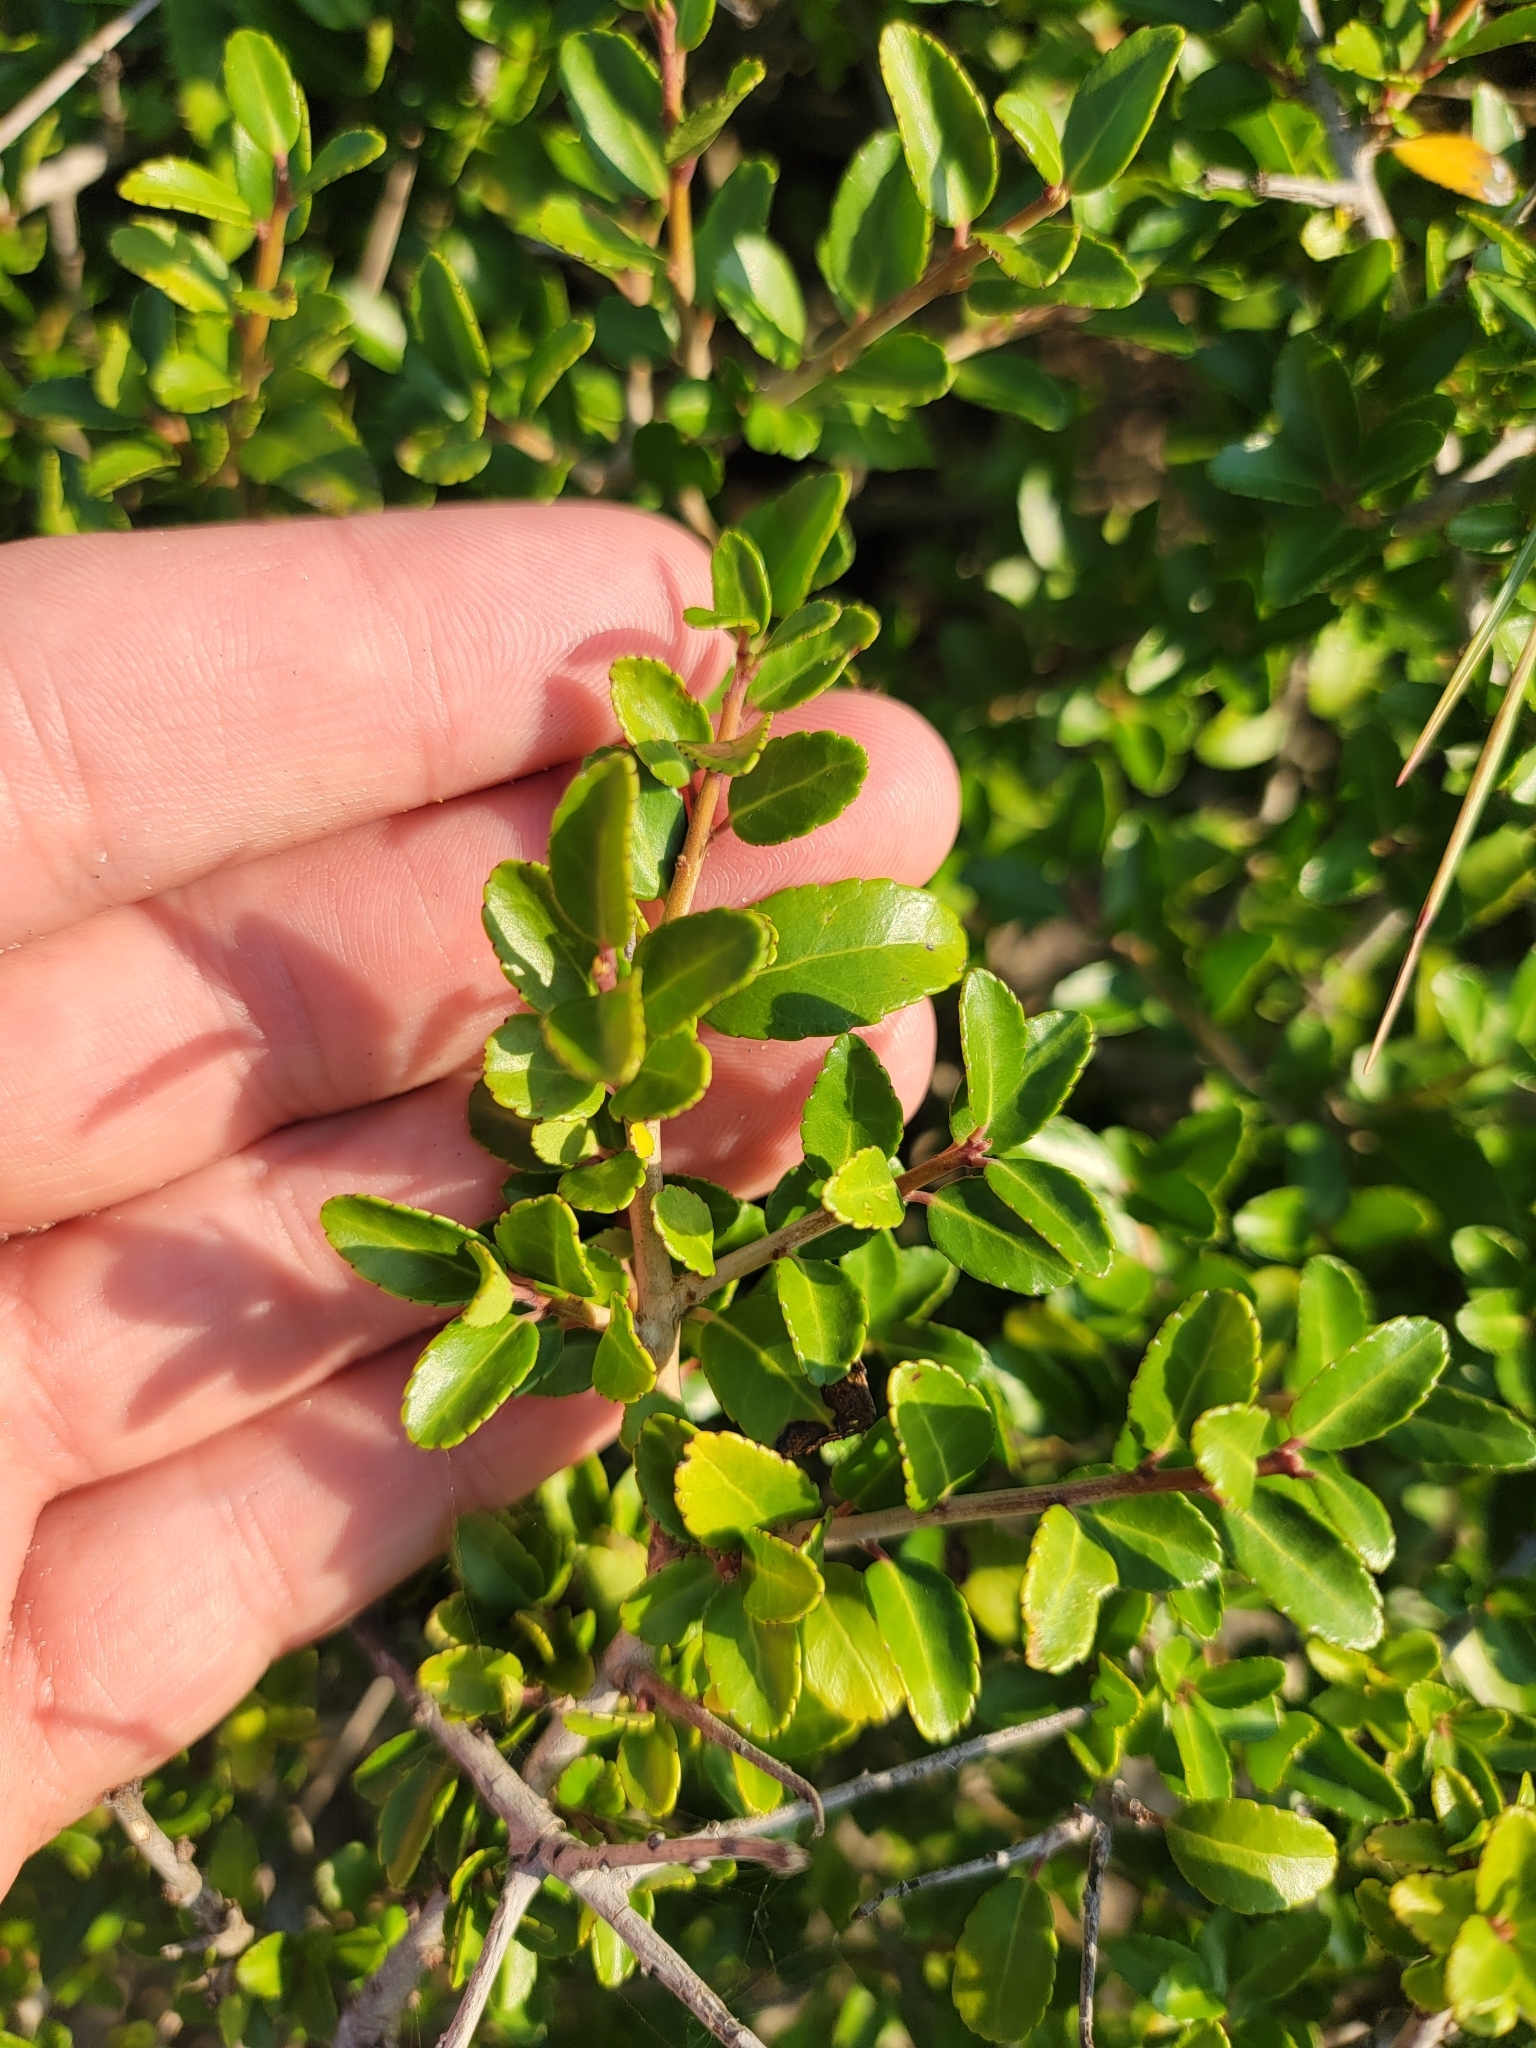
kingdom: Plantae
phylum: Tracheophyta
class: Magnoliopsida
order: Aquifoliales
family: Aquifoliaceae
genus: Ilex
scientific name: Ilex vomitoria
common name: Yaupon holly
